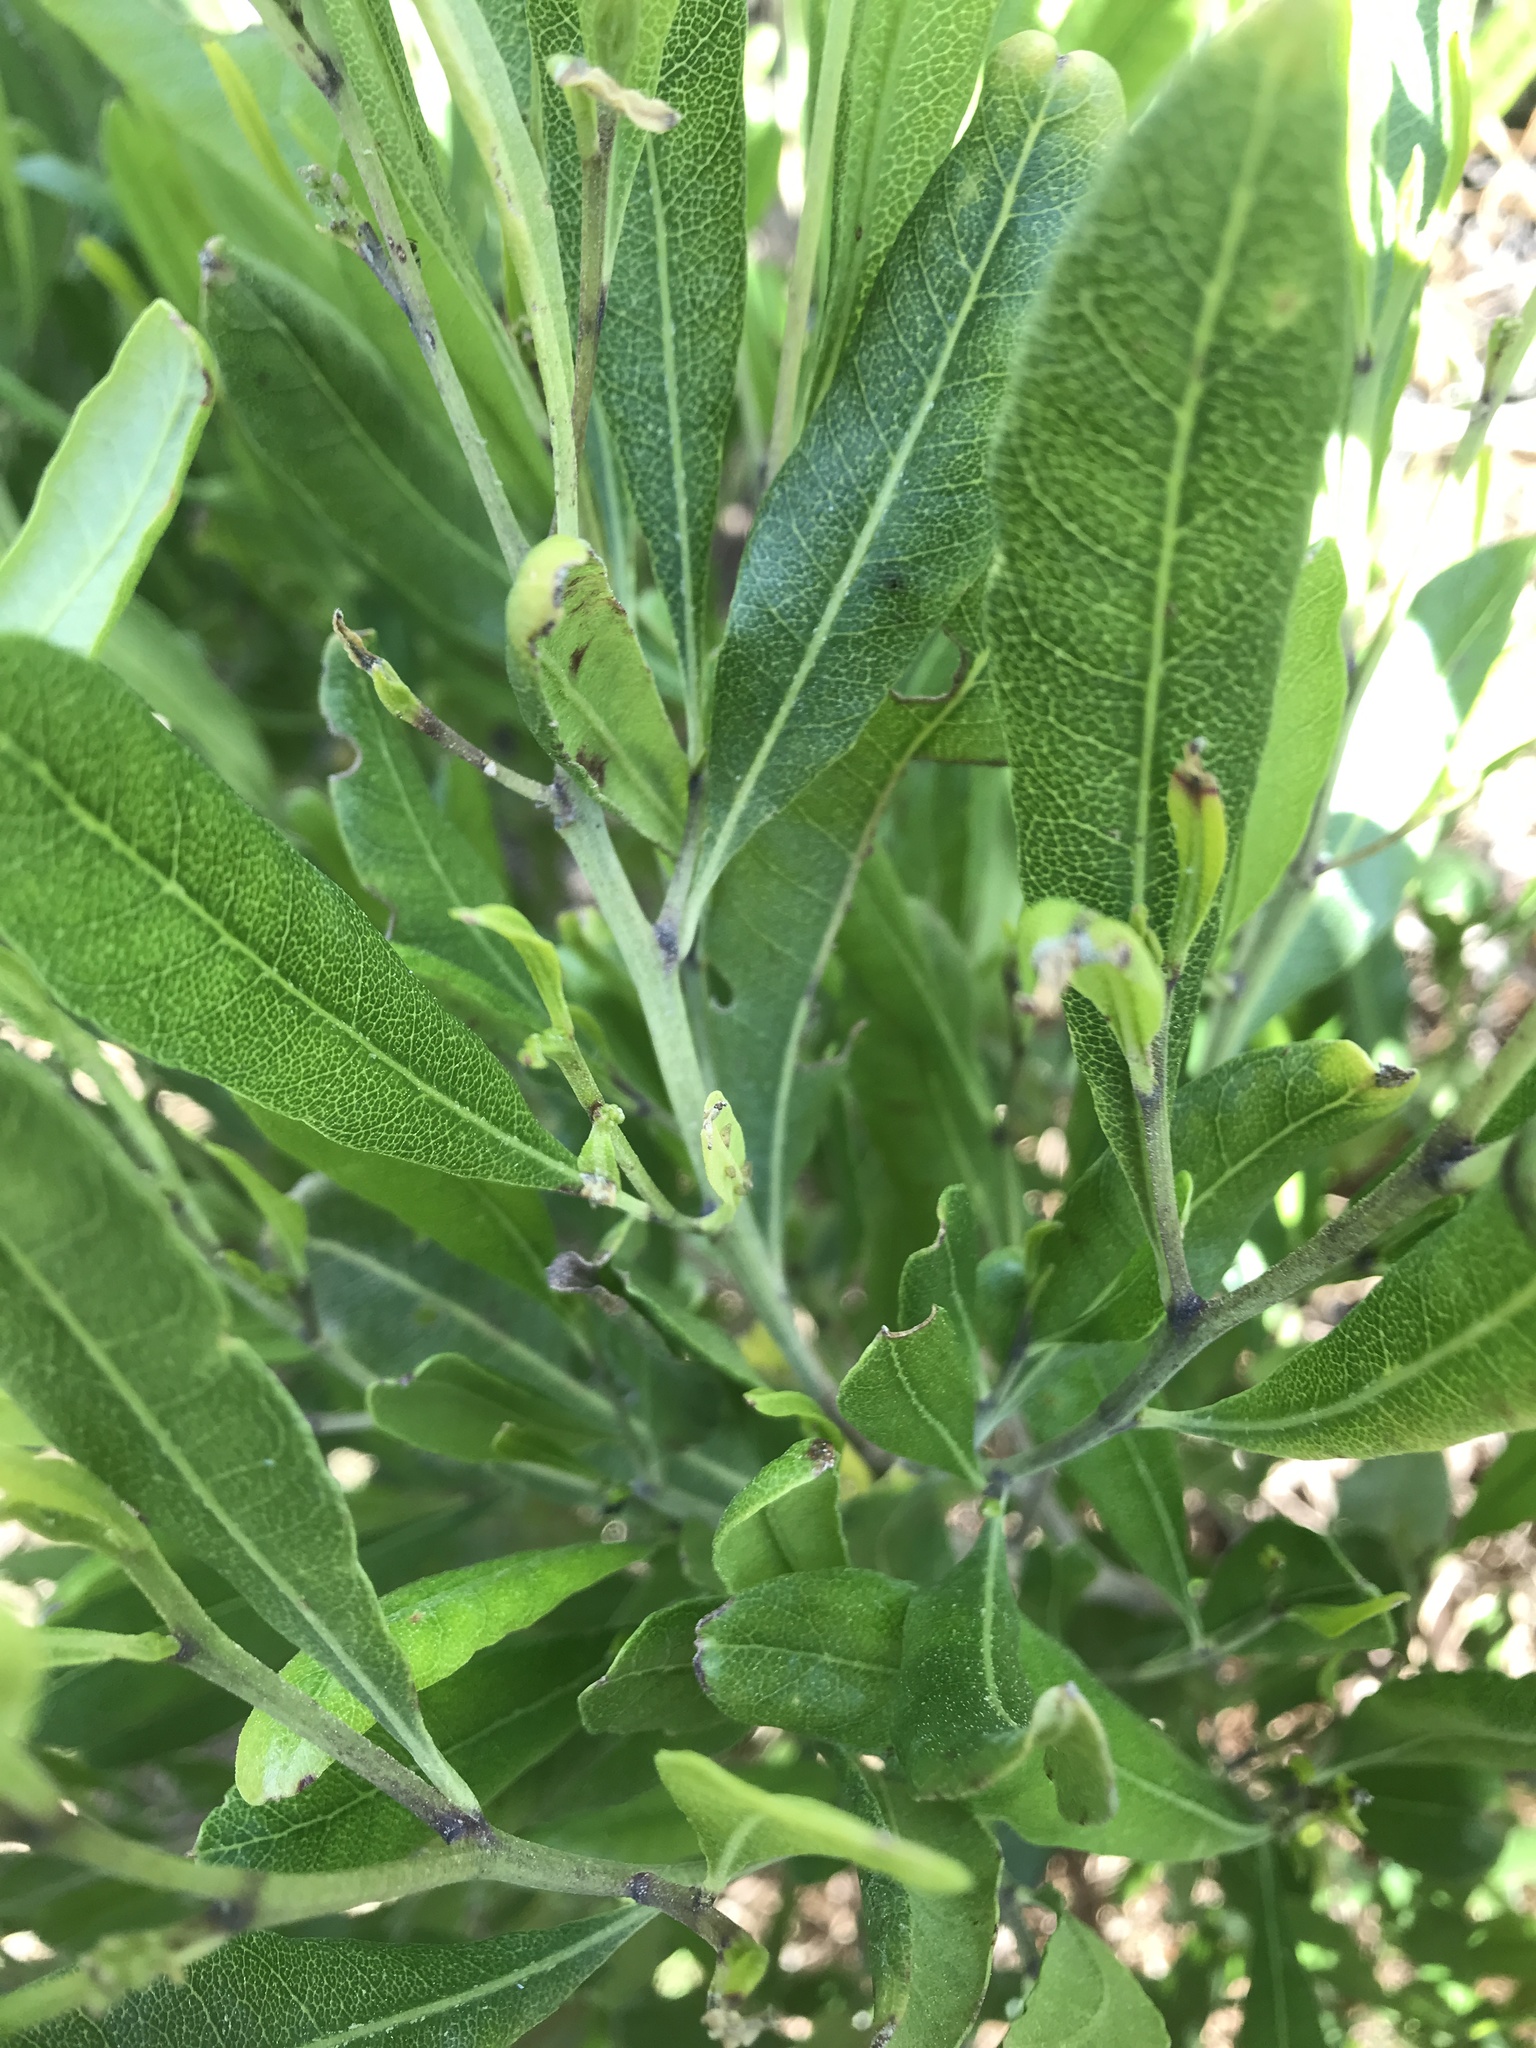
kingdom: Plantae
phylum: Tracheophyta
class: Magnoliopsida
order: Sapindales
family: Sapindaceae
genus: Dodonaea
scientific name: Dodonaea viscosa
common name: Hopbush
